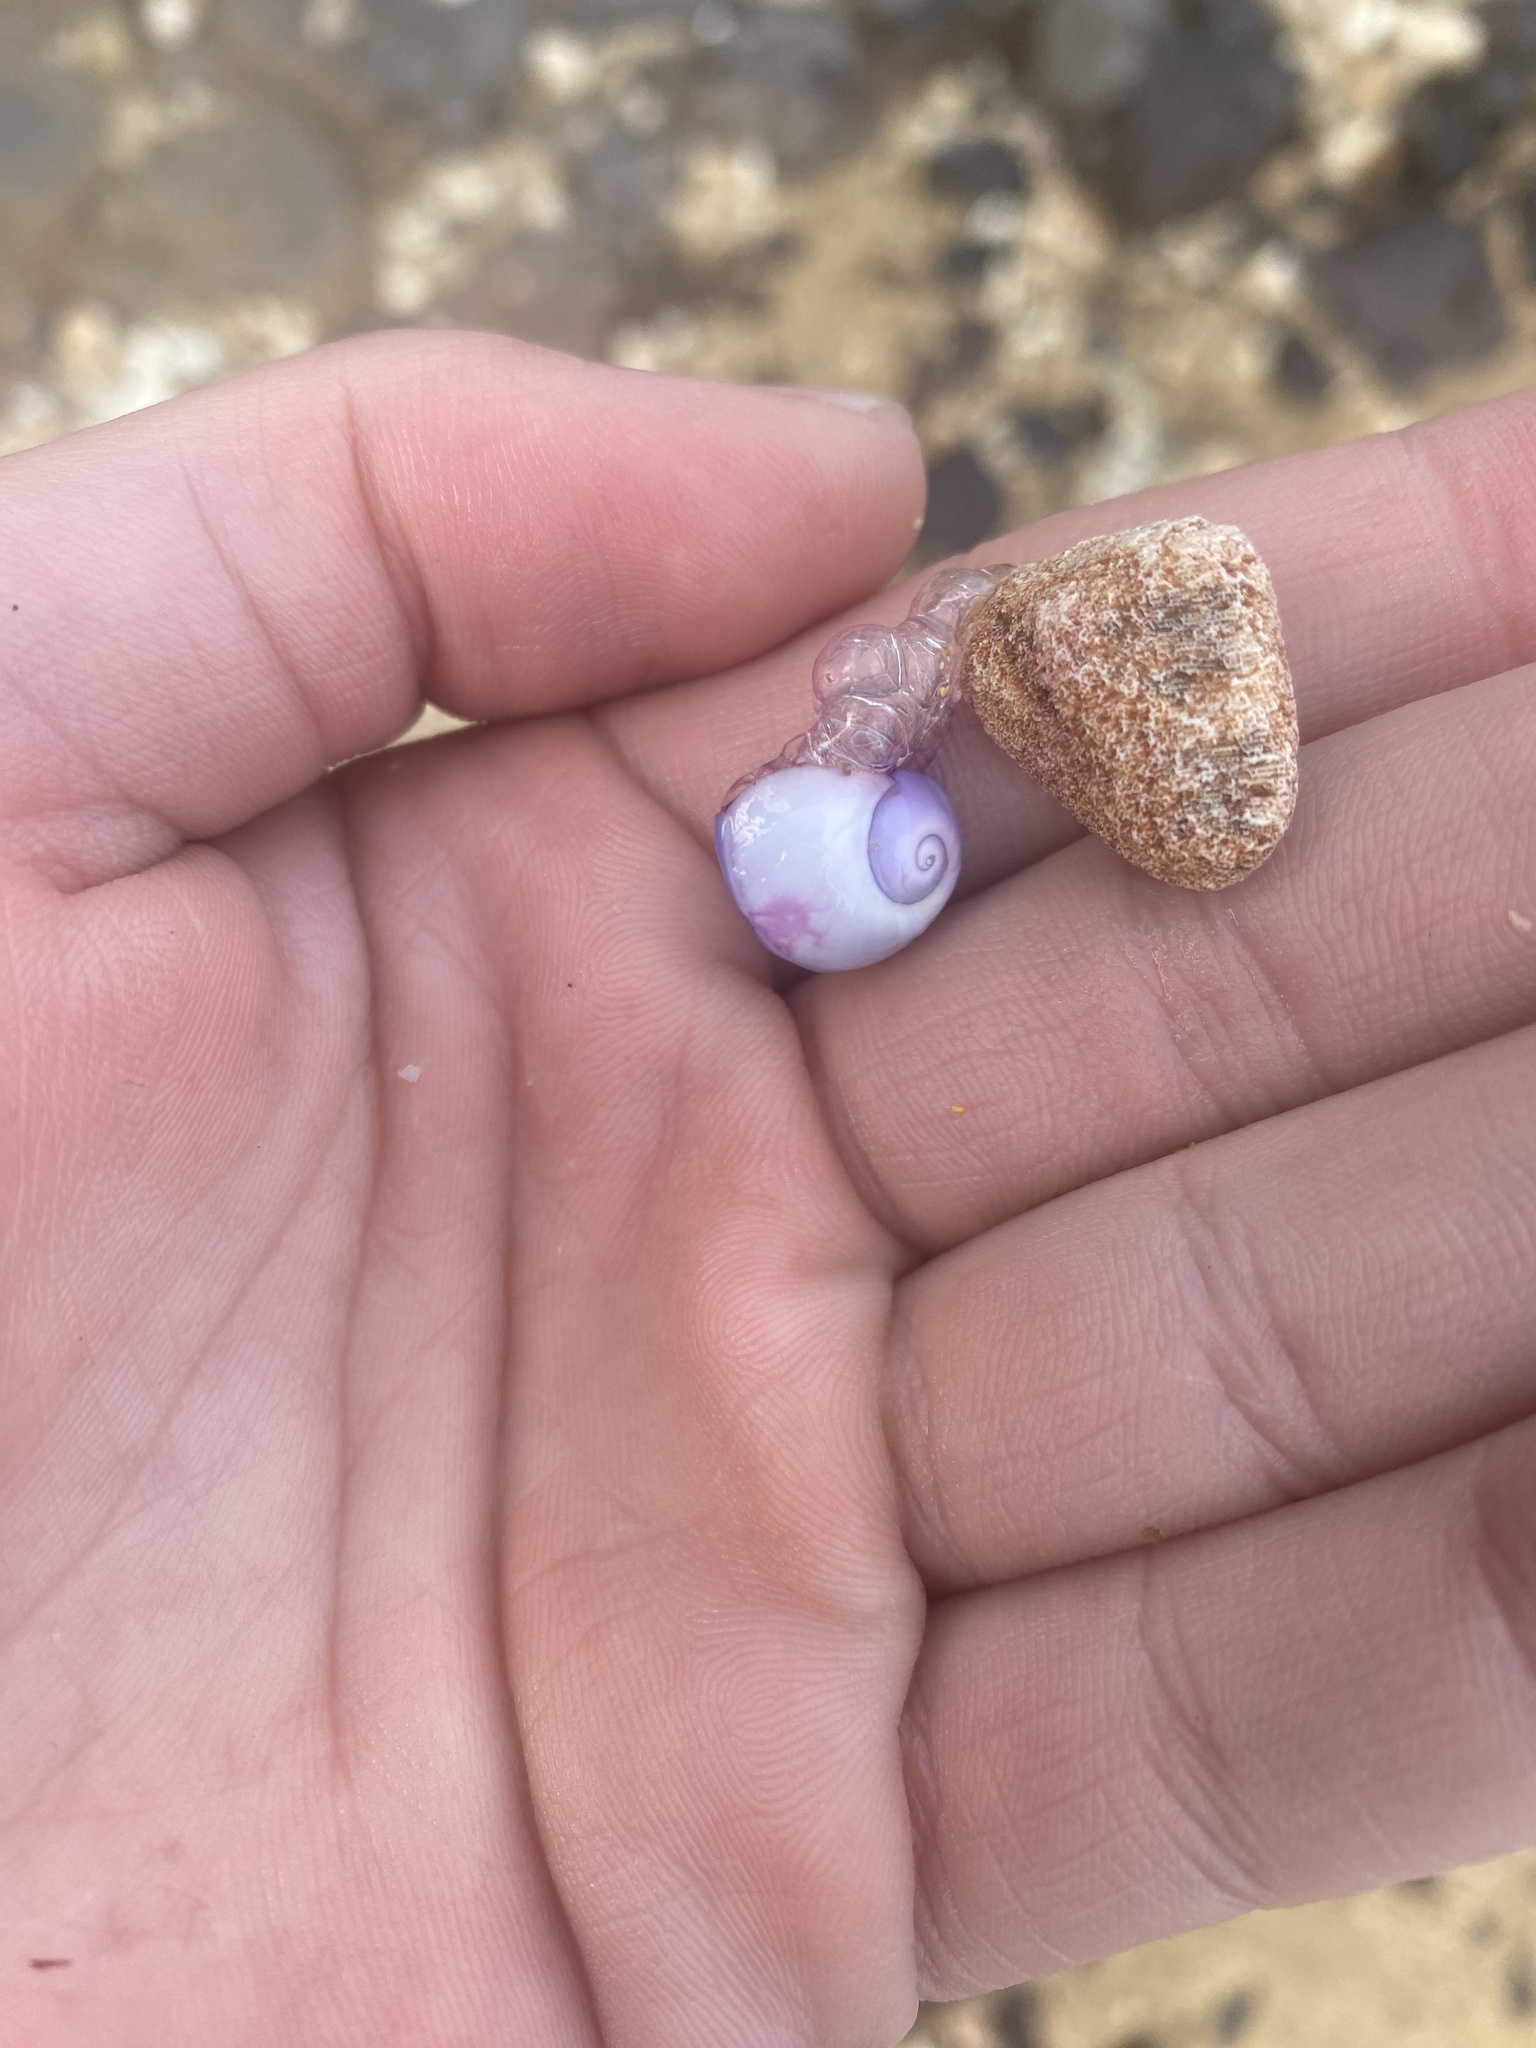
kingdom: Animalia
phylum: Mollusca
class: Gastropoda
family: Epitoniidae
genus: Janthina
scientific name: Janthina janthina
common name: Common janthina
